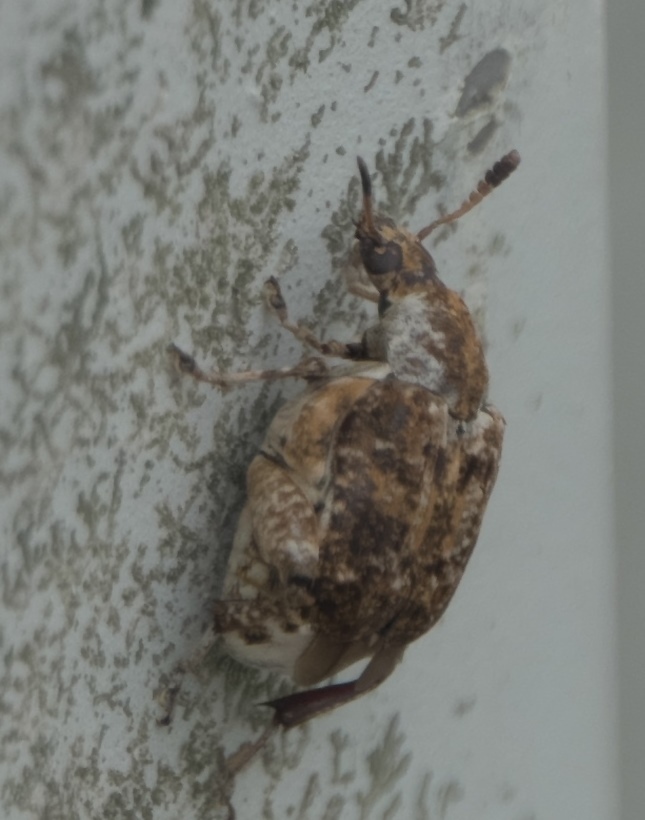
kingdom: Animalia
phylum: Arthropoda
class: Insecta
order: Coleoptera
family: Chrysomelidae
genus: Merobruchus
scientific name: Merobruchus major
